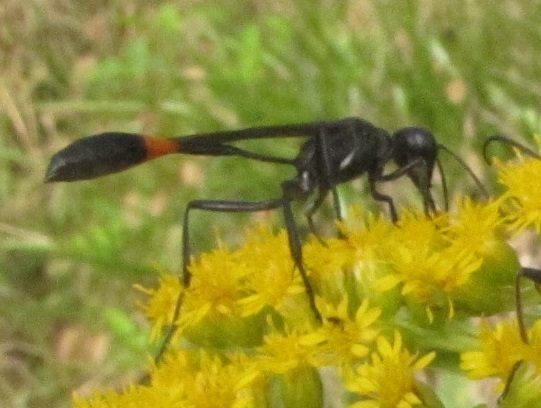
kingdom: Animalia
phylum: Arthropoda
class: Insecta
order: Hymenoptera
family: Sphecidae
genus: Ammophila
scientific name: Ammophila nigricans
